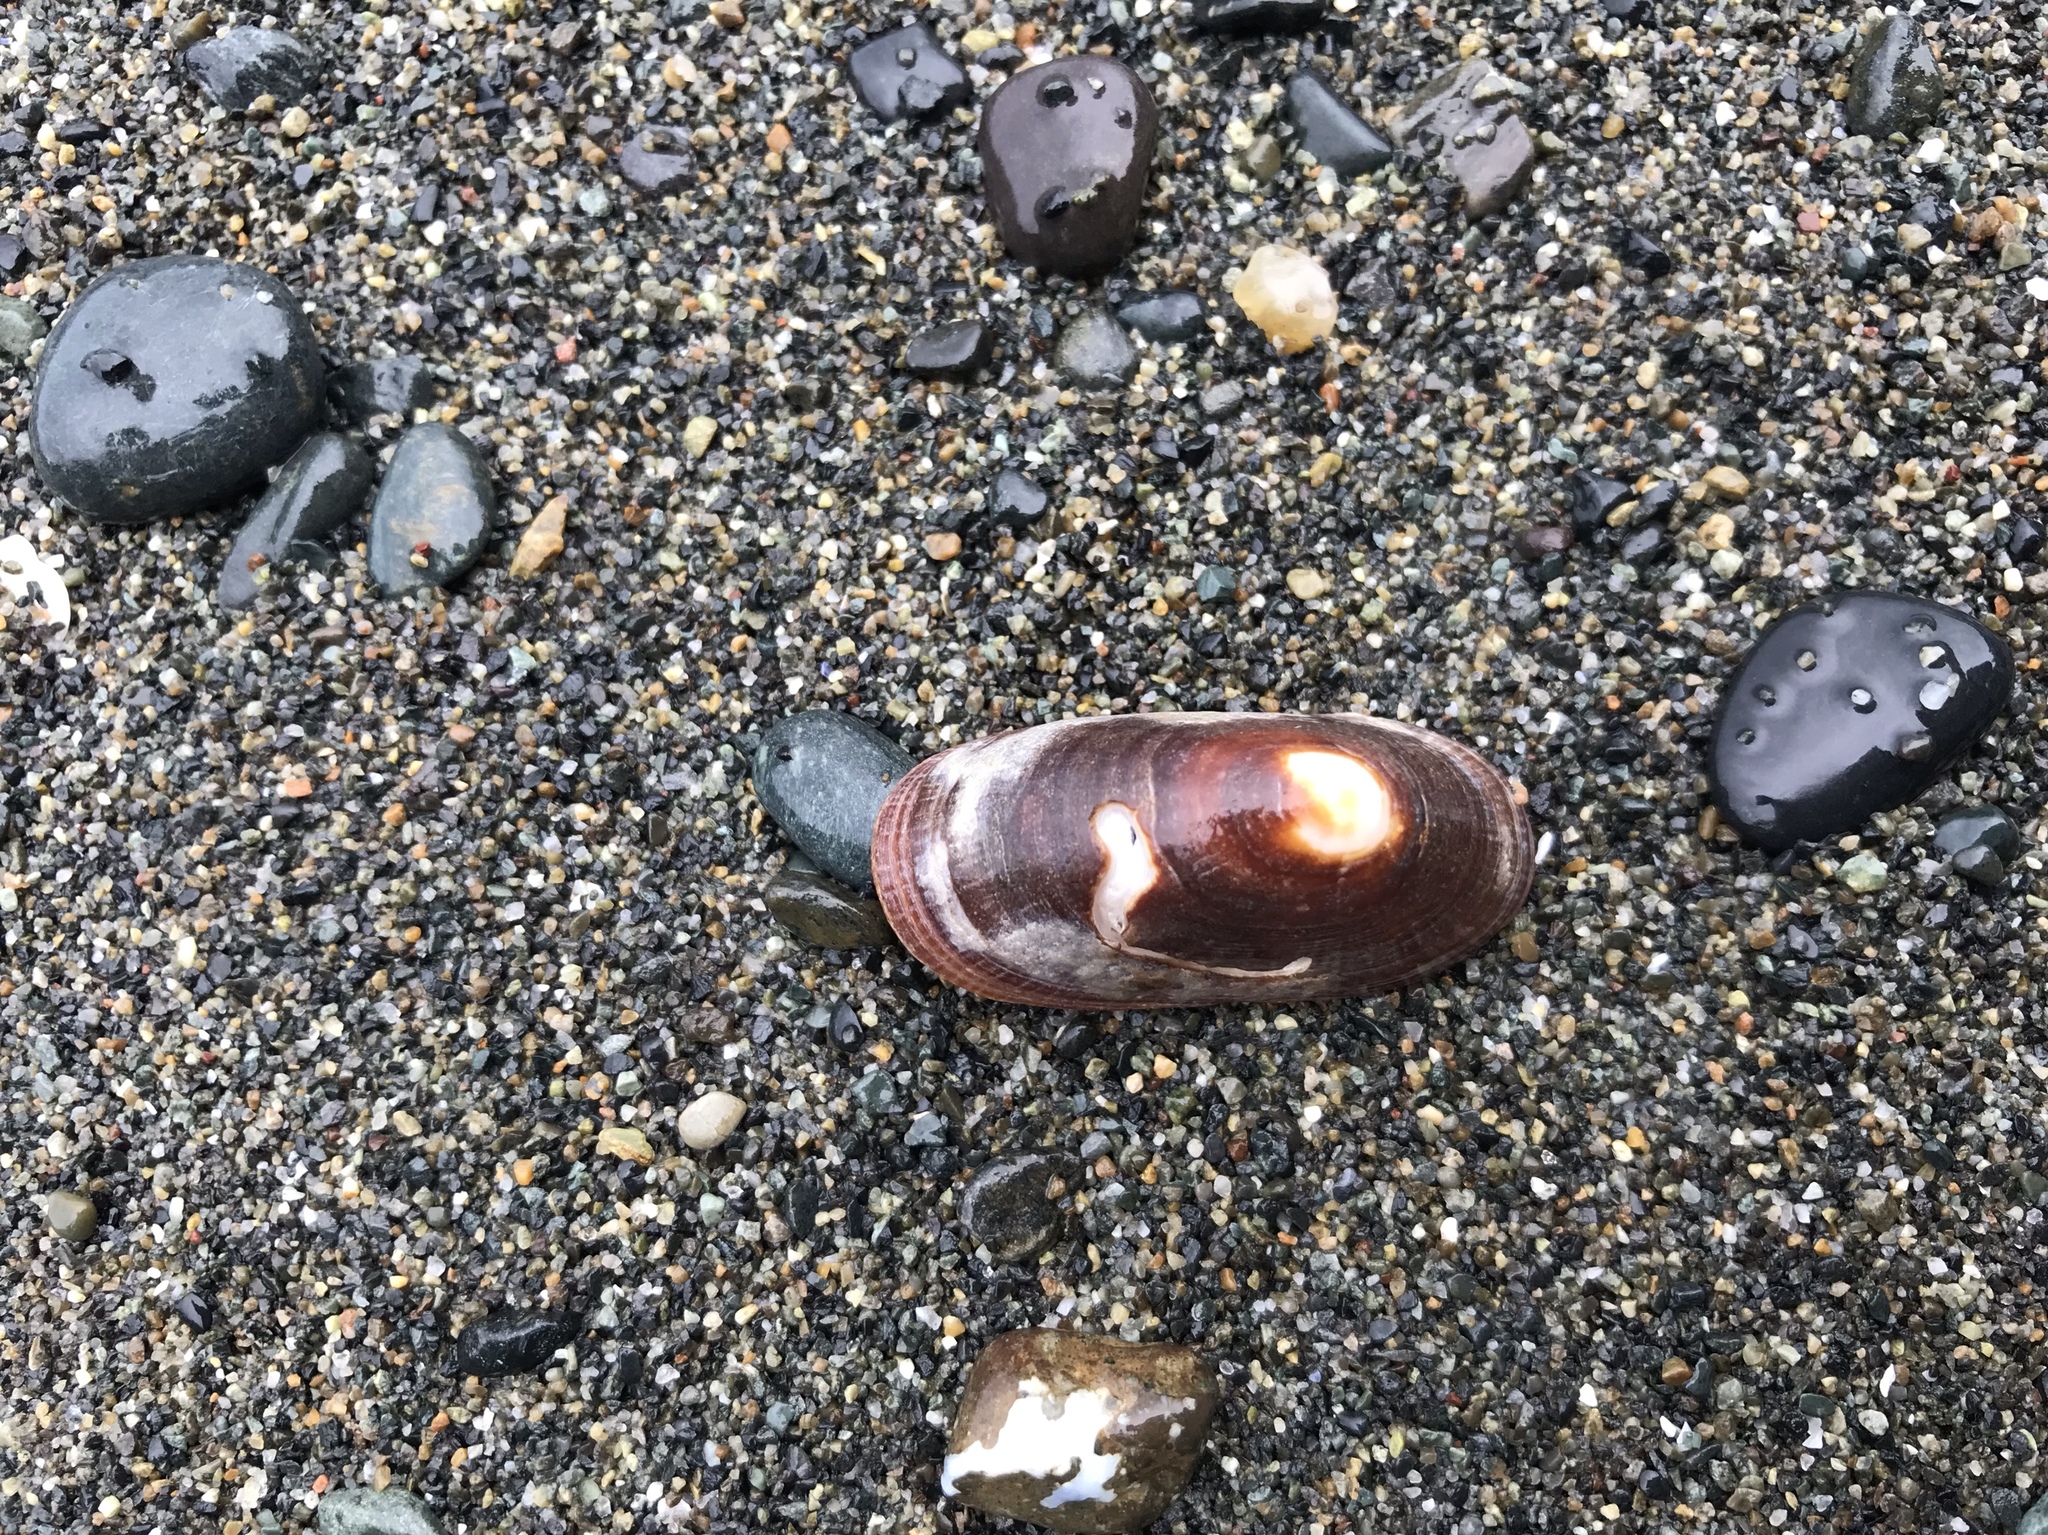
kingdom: Animalia
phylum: Mollusca
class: Gastropoda
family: Lottiidae
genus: Lottia
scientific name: Lottia instabilis
